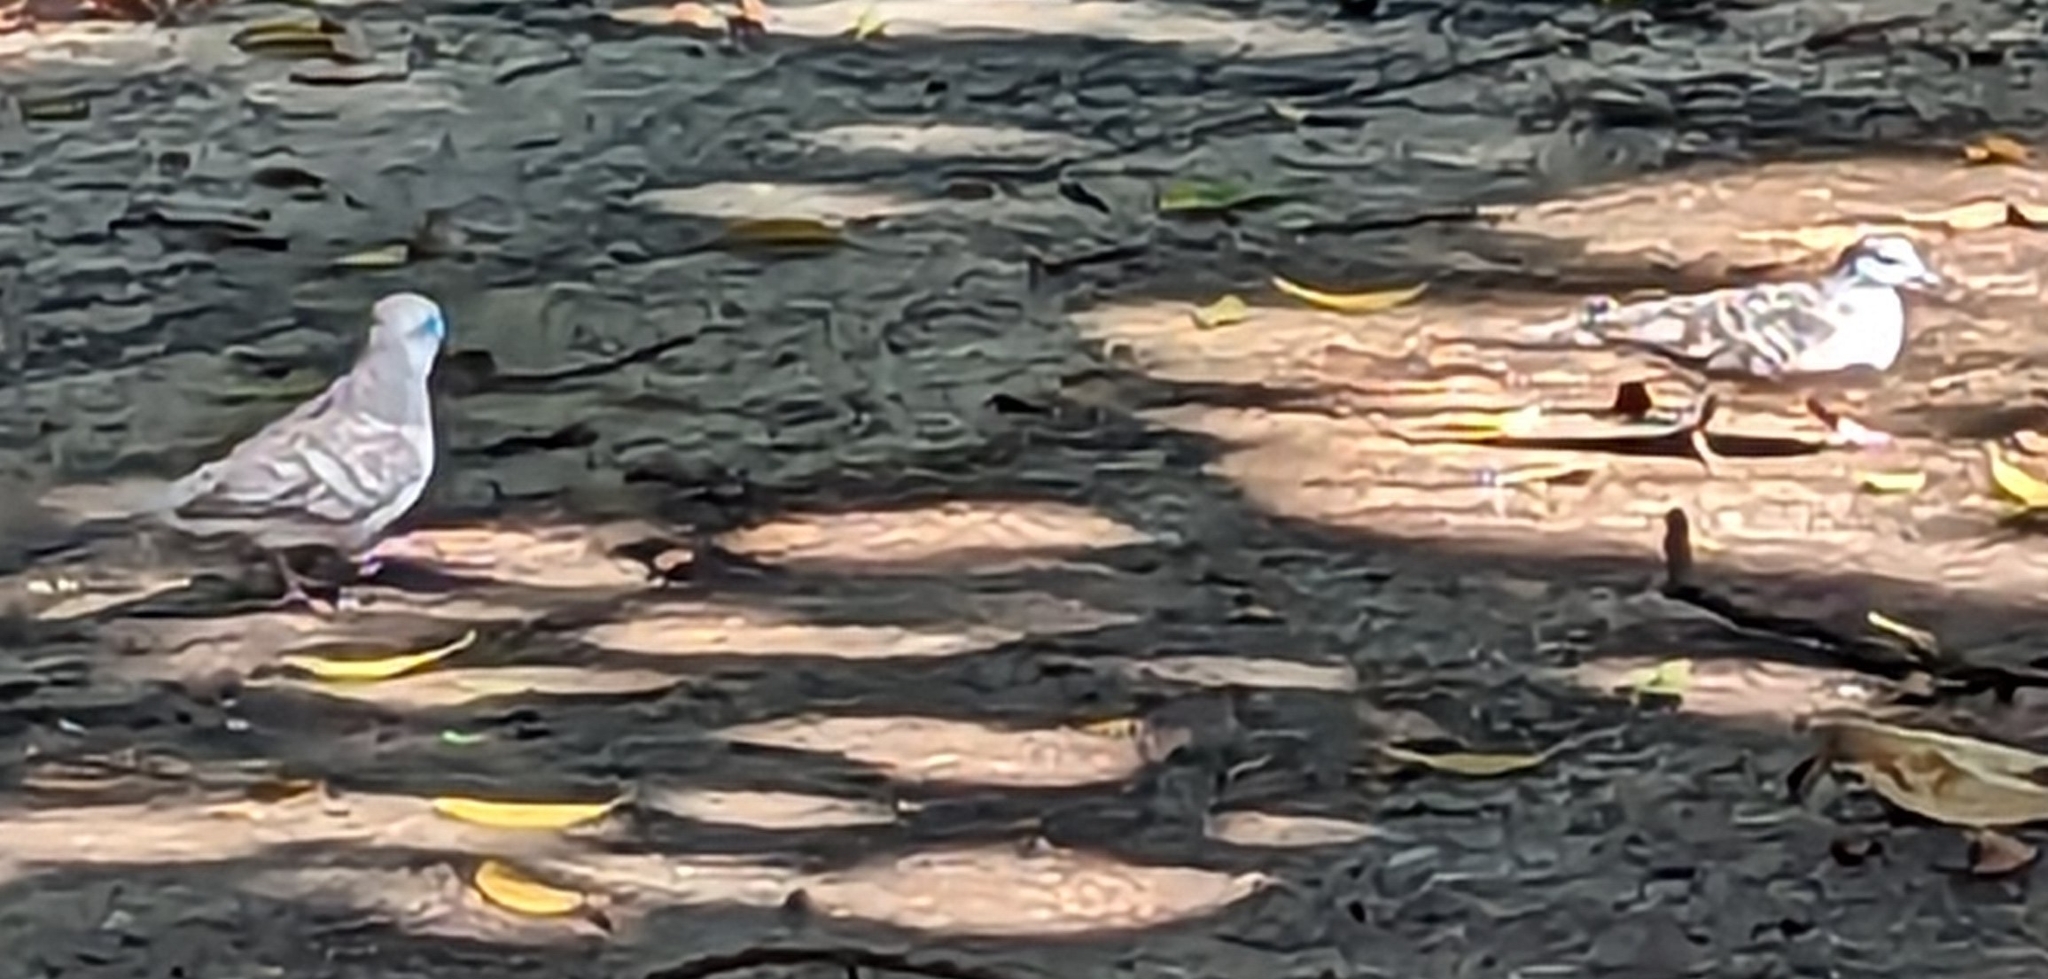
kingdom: Animalia
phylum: Chordata
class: Aves
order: Columbiformes
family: Columbidae
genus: Geopelia
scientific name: Geopelia placida
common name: Peaceful dove
